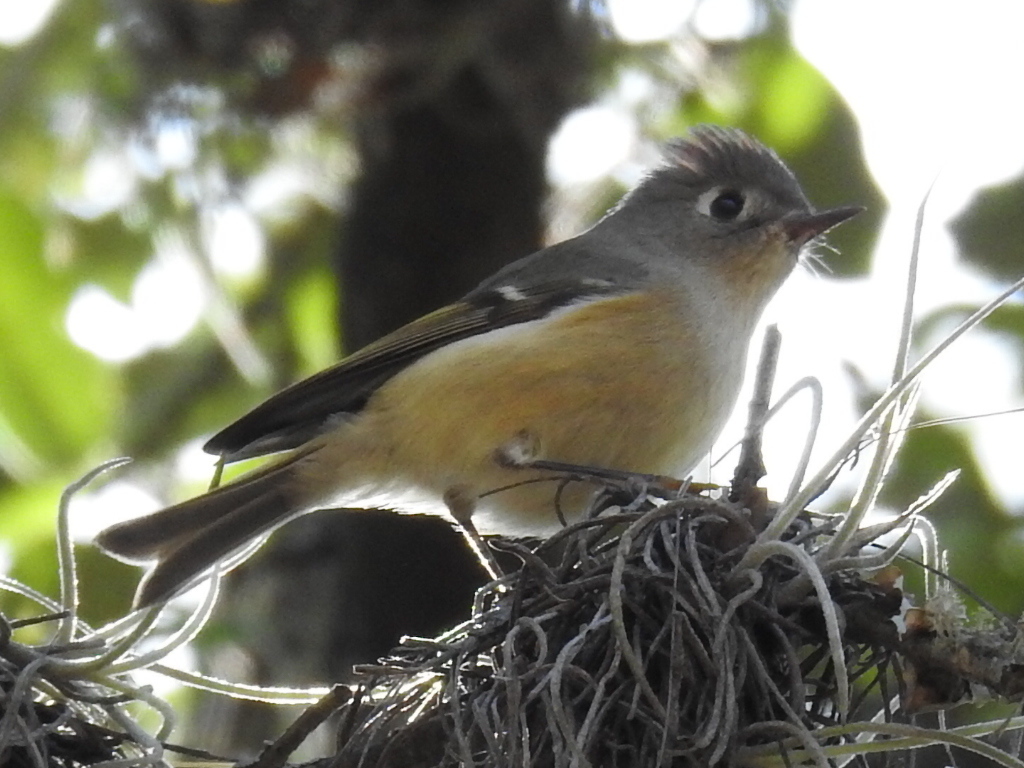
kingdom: Animalia
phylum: Chordata
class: Aves
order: Passeriformes
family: Regulidae
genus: Regulus
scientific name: Regulus calendula
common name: Ruby-crowned kinglet
